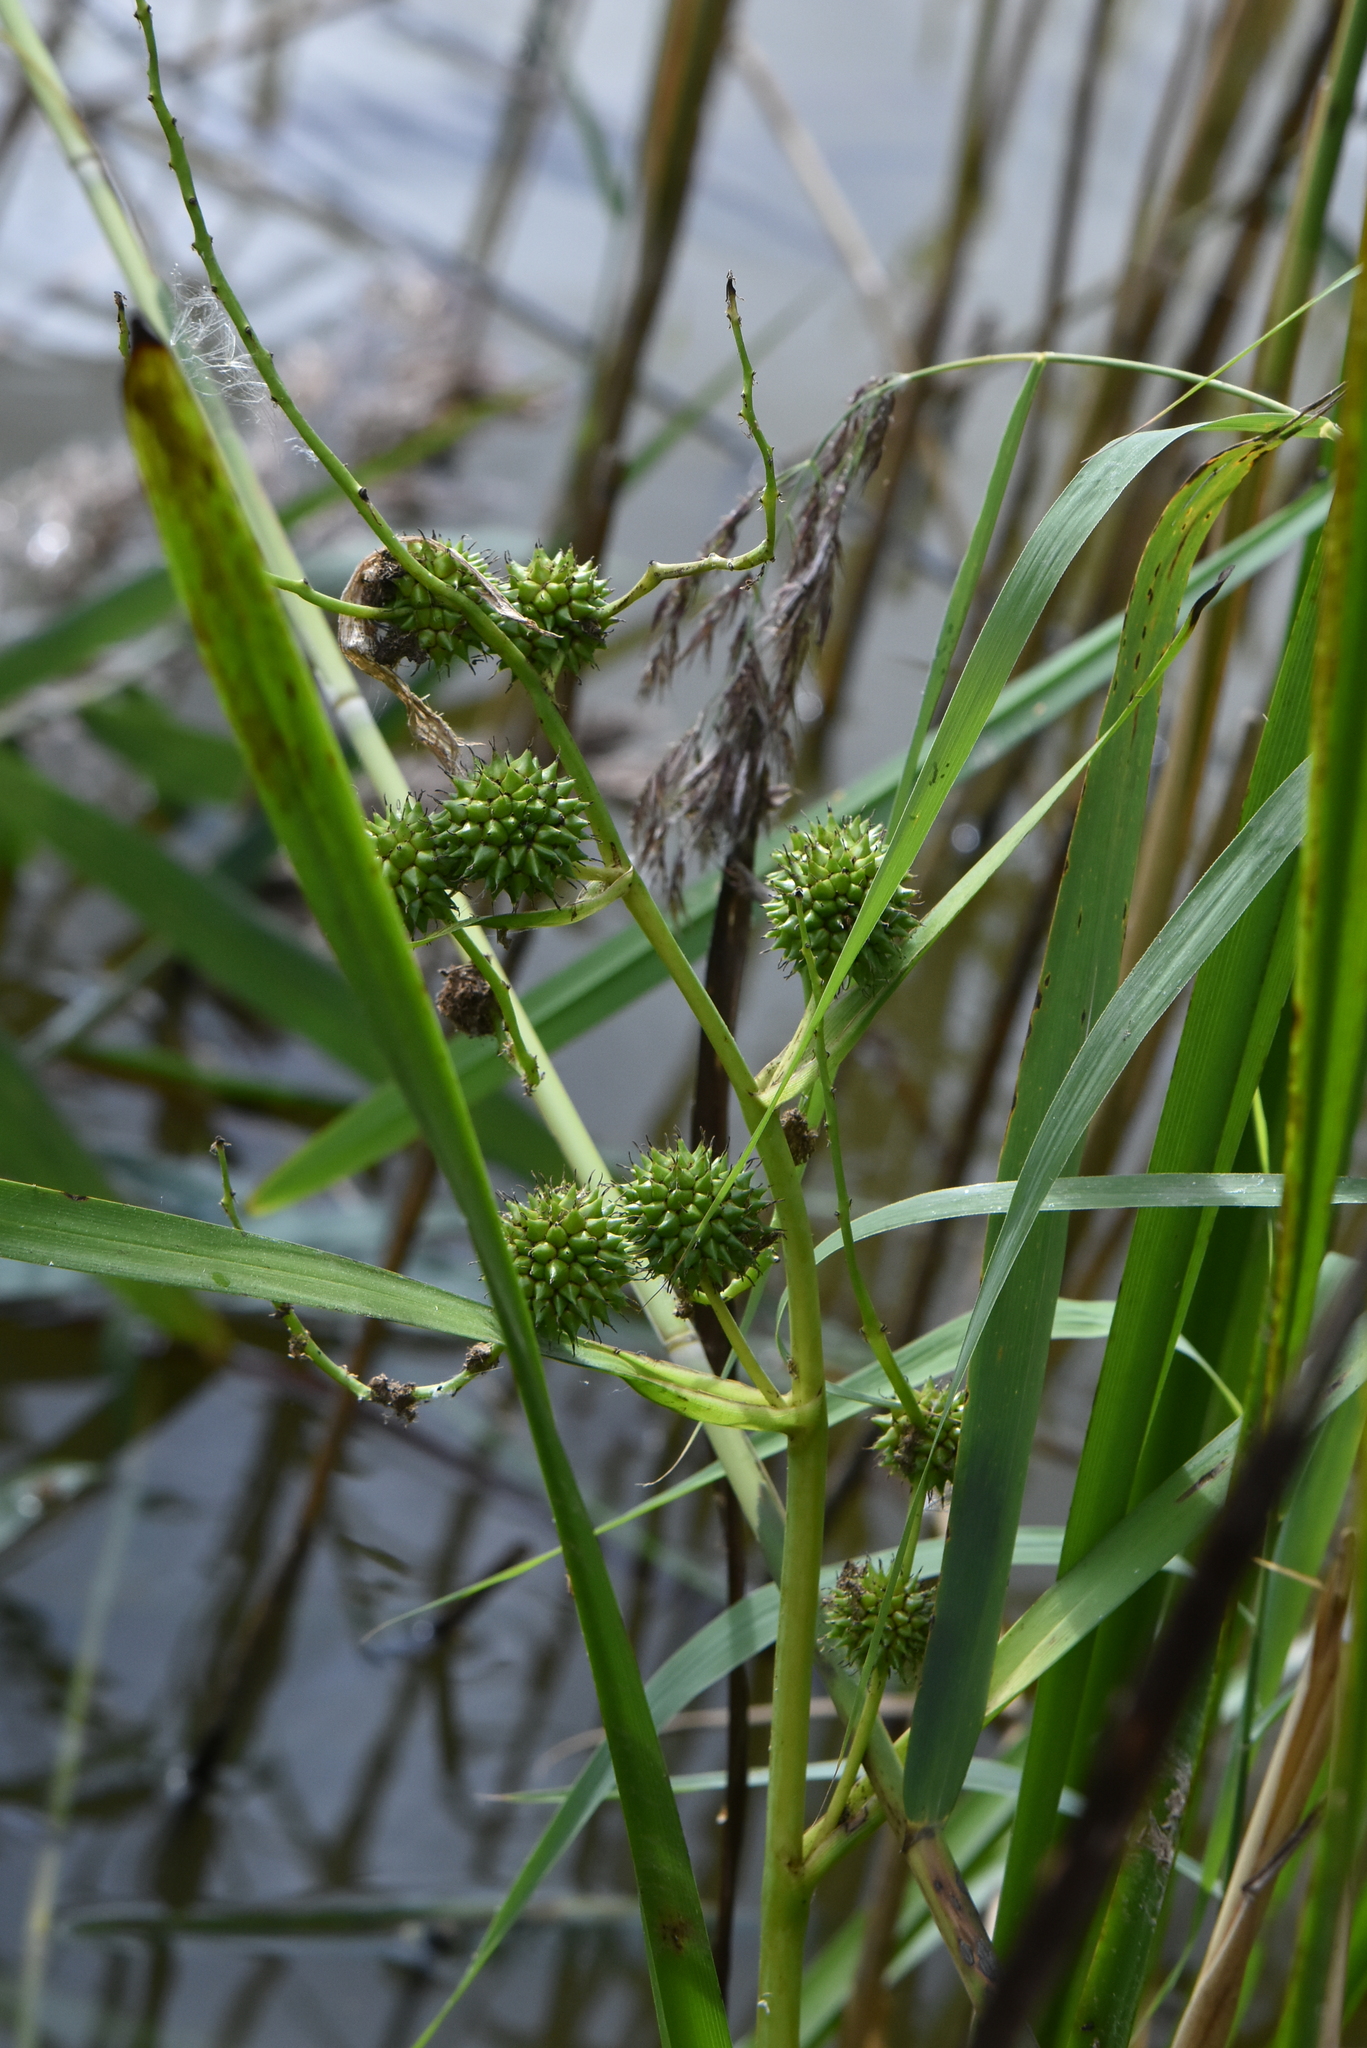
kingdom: Plantae
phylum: Tracheophyta
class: Liliopsida
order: Poales
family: Typhaceae
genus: Sparganium
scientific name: Sparganium erectum
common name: Branched bur-reed
